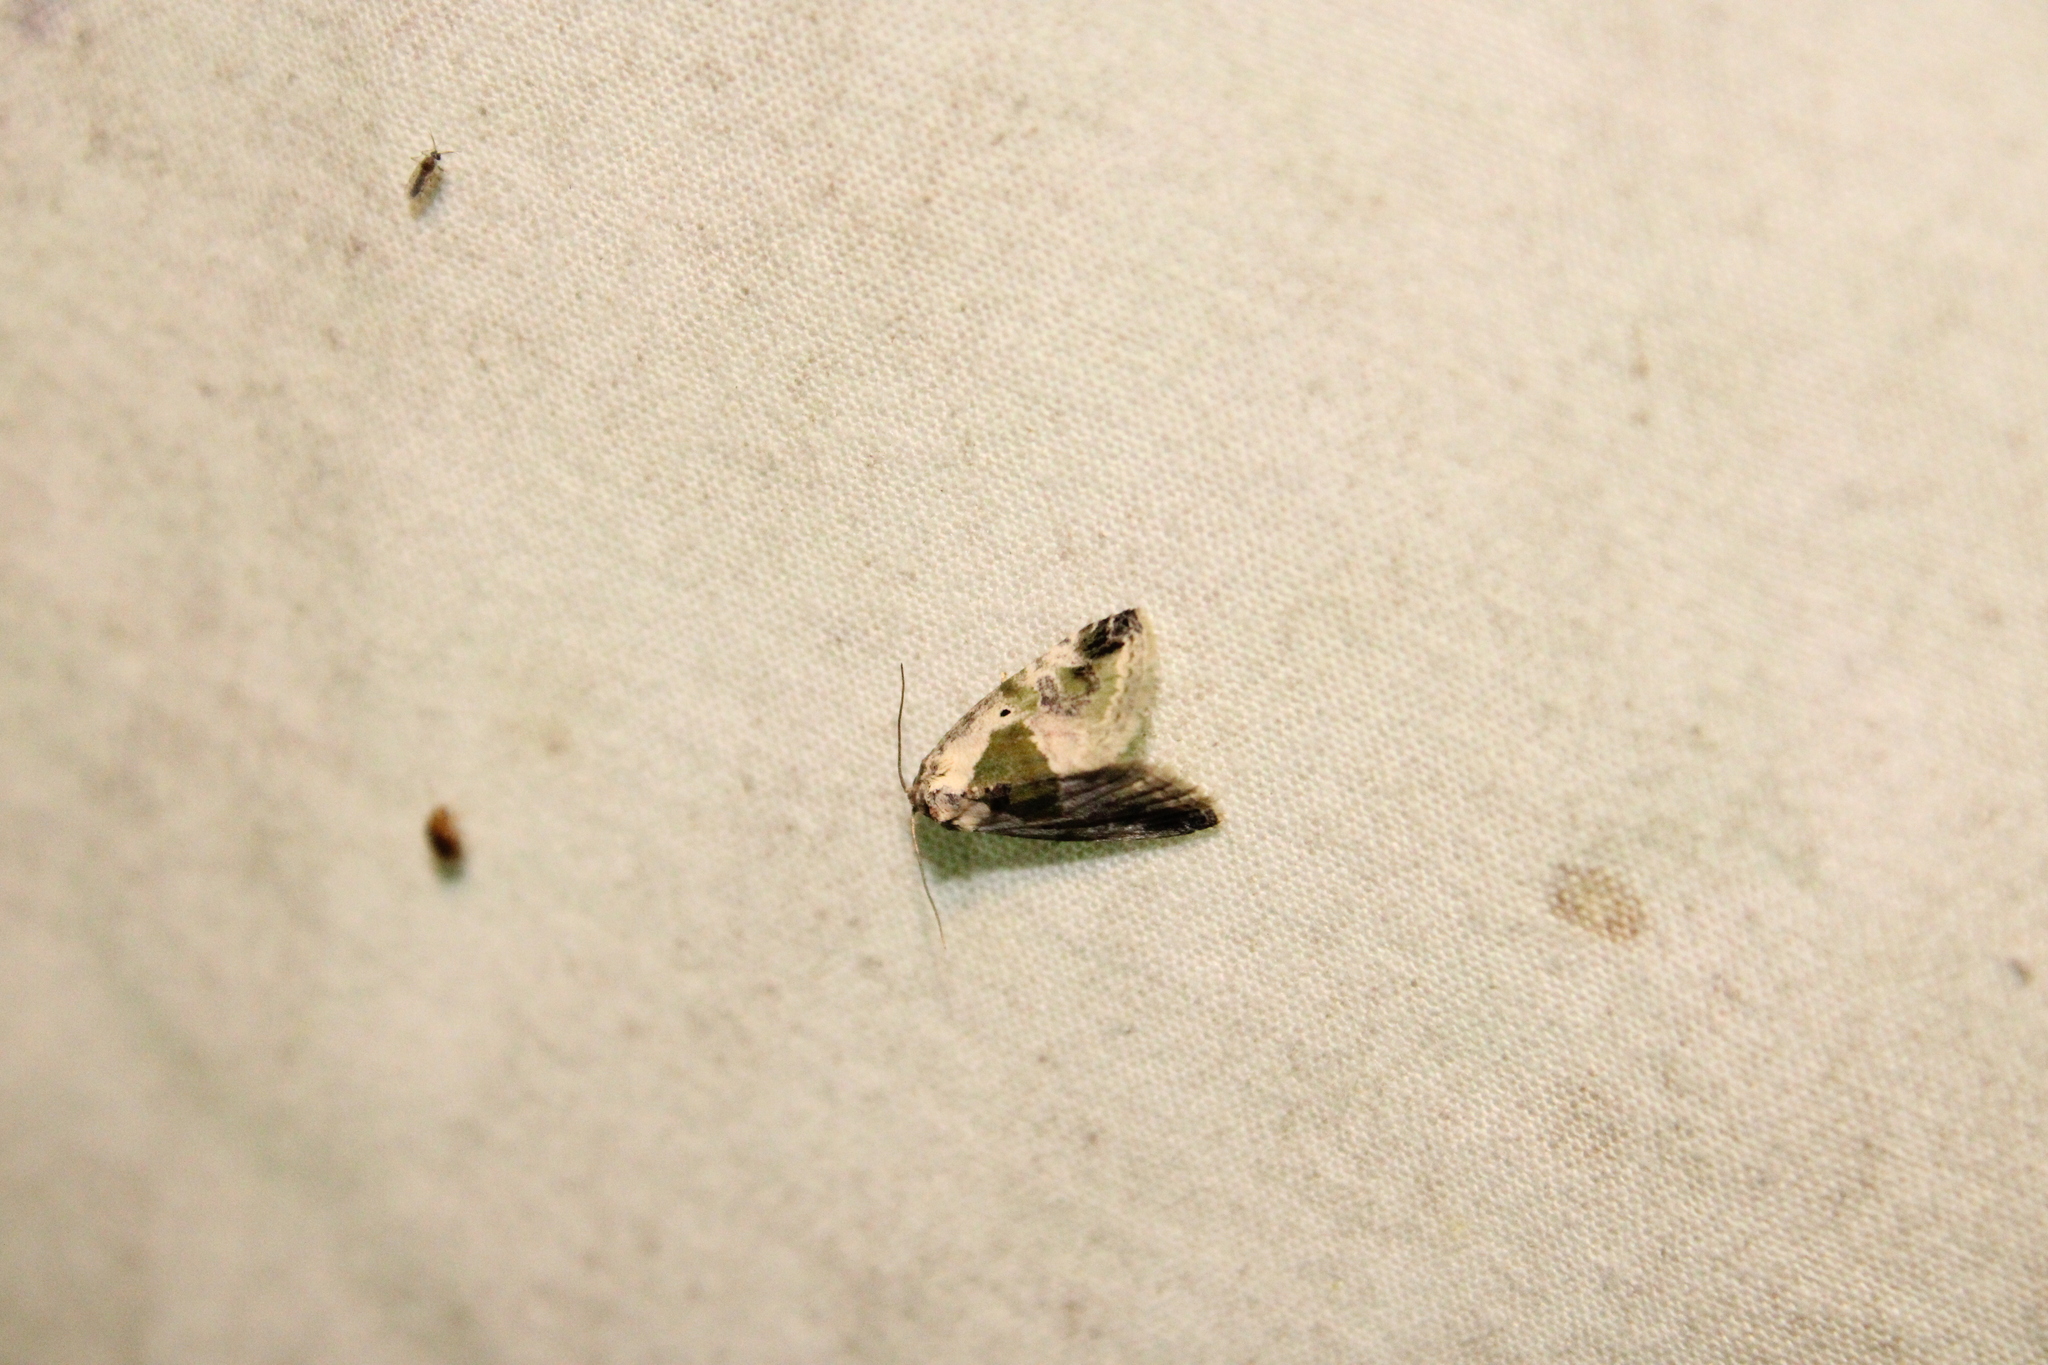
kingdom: Animalia
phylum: Arthropoda
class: Insecta
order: Lepidoptera
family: Noctuidae
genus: Maliattha
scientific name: Maliattha synochitis
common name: Black-dotted glyph
